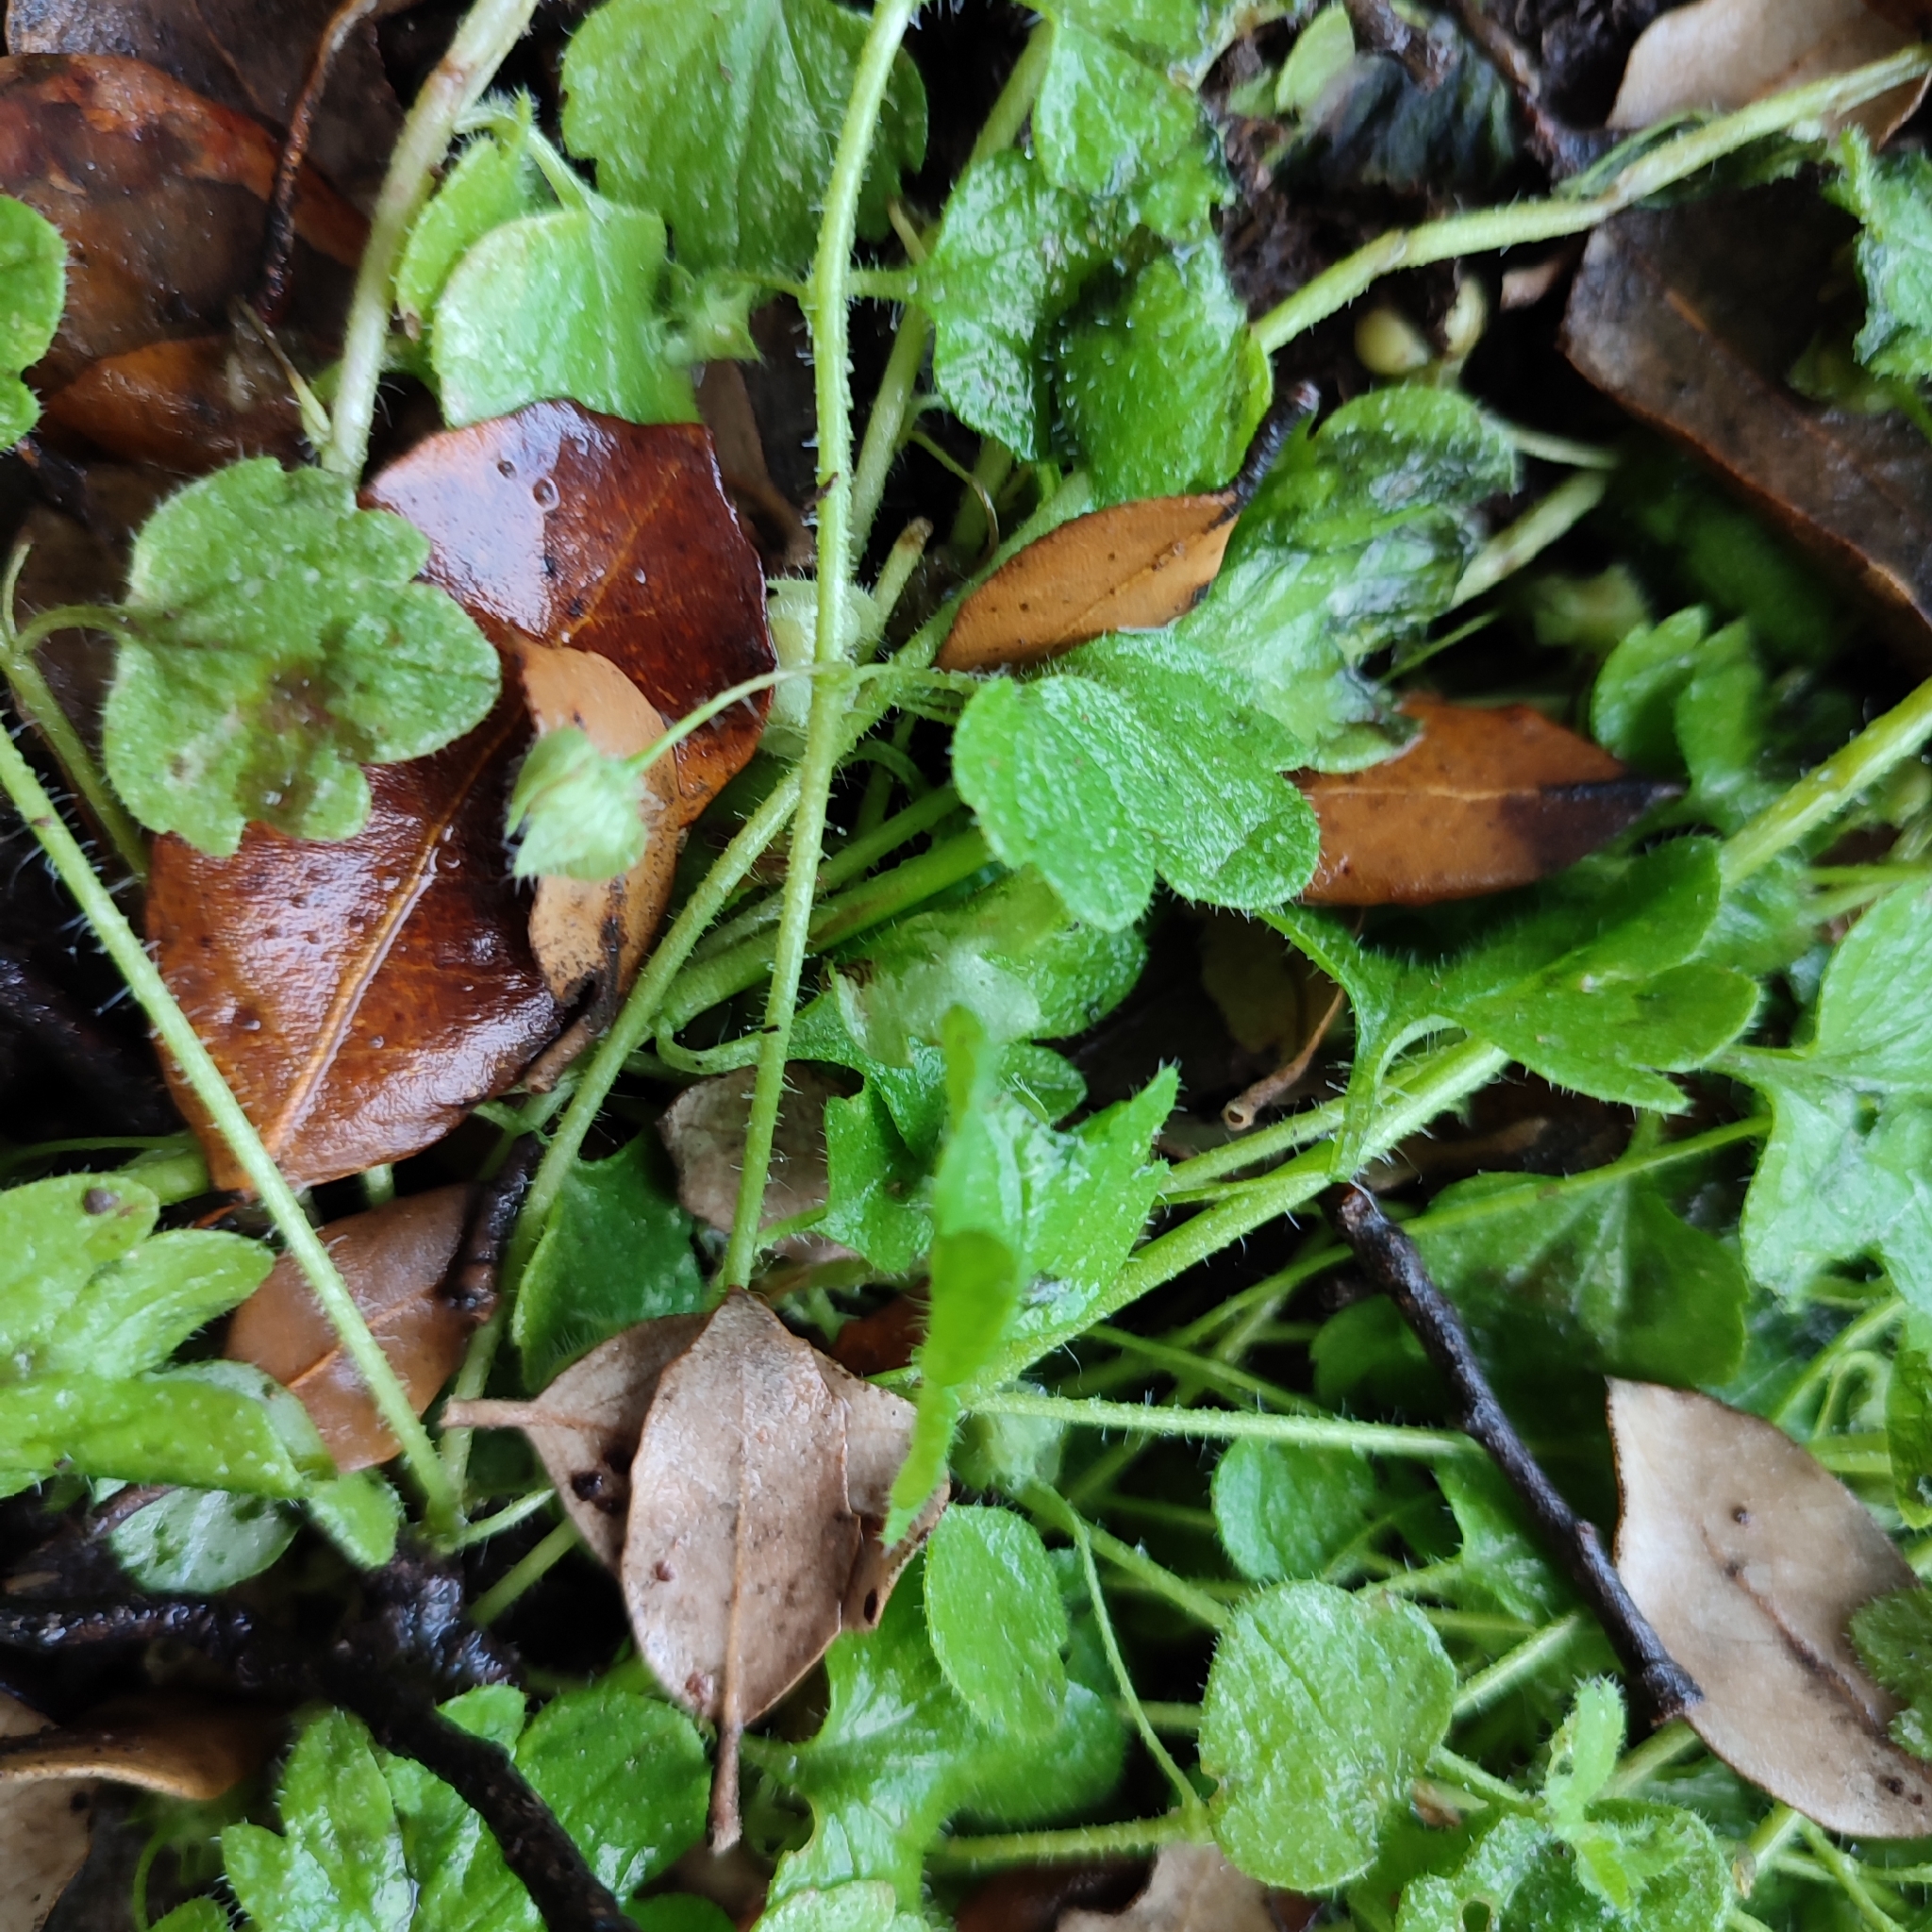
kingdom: Plantae
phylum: Tracheophyta
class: Magnoliopsida
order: Lamiales
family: Plantaginaceae
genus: Veronica
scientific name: Veronica hederifolia
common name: Ivy-leaved speedwell
